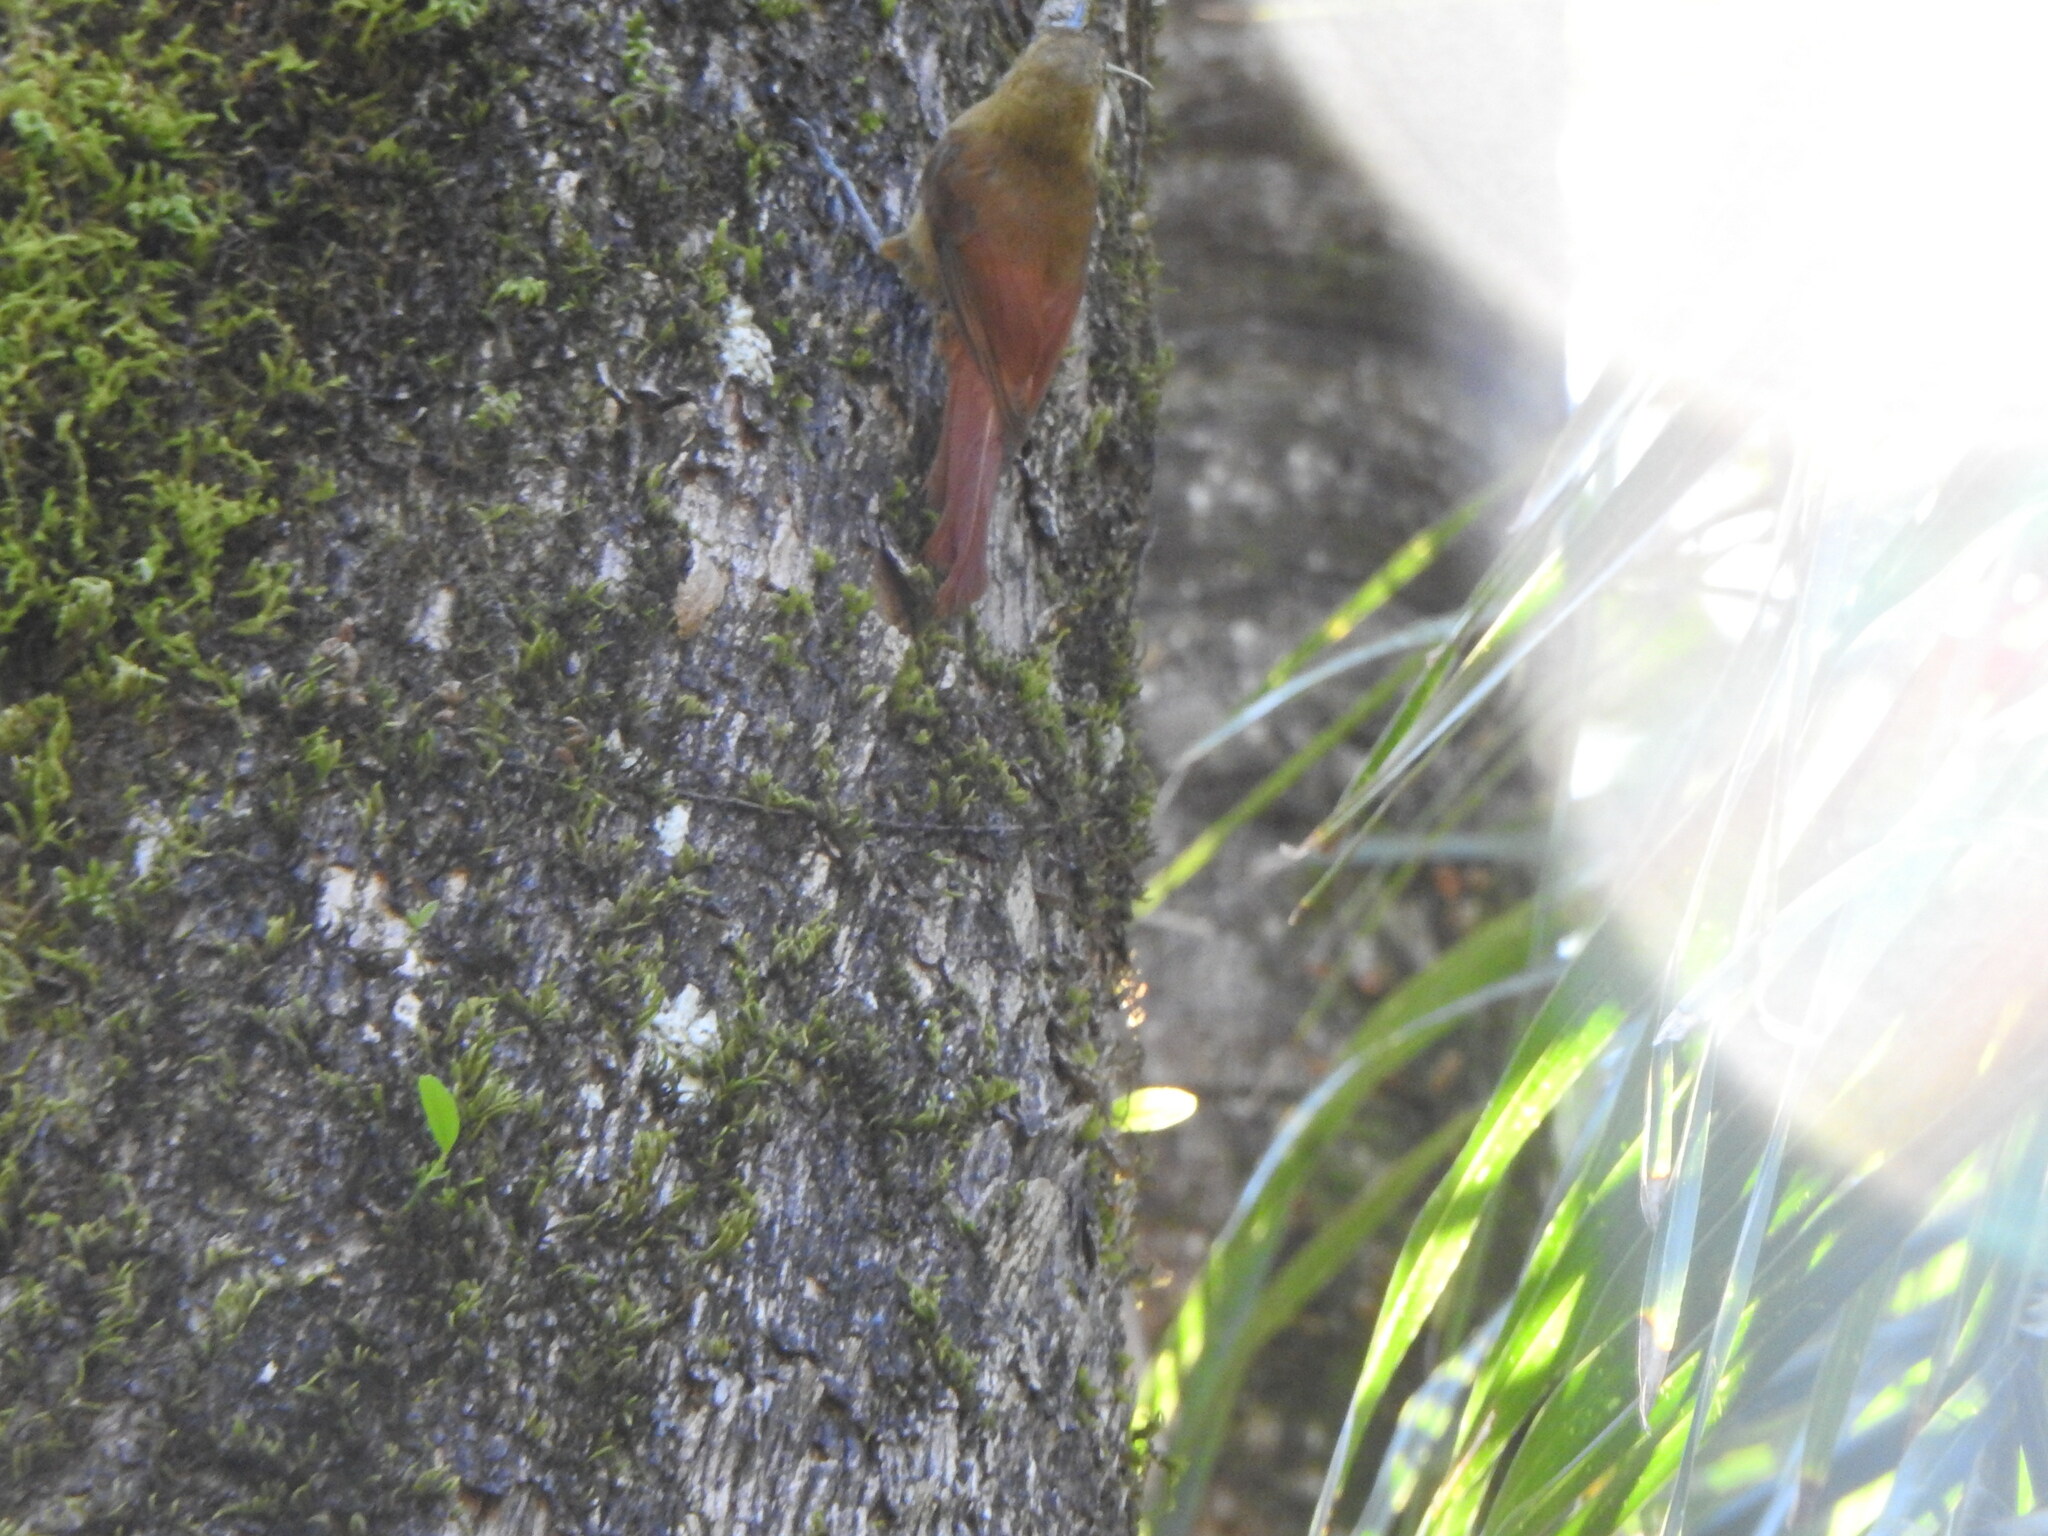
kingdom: Animalia
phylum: Chordata
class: Aves
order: Passeriformes
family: Furnariidae
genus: Sittasomus
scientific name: Sittasomus griseicapillus
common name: Olivaceous woodcreeper
